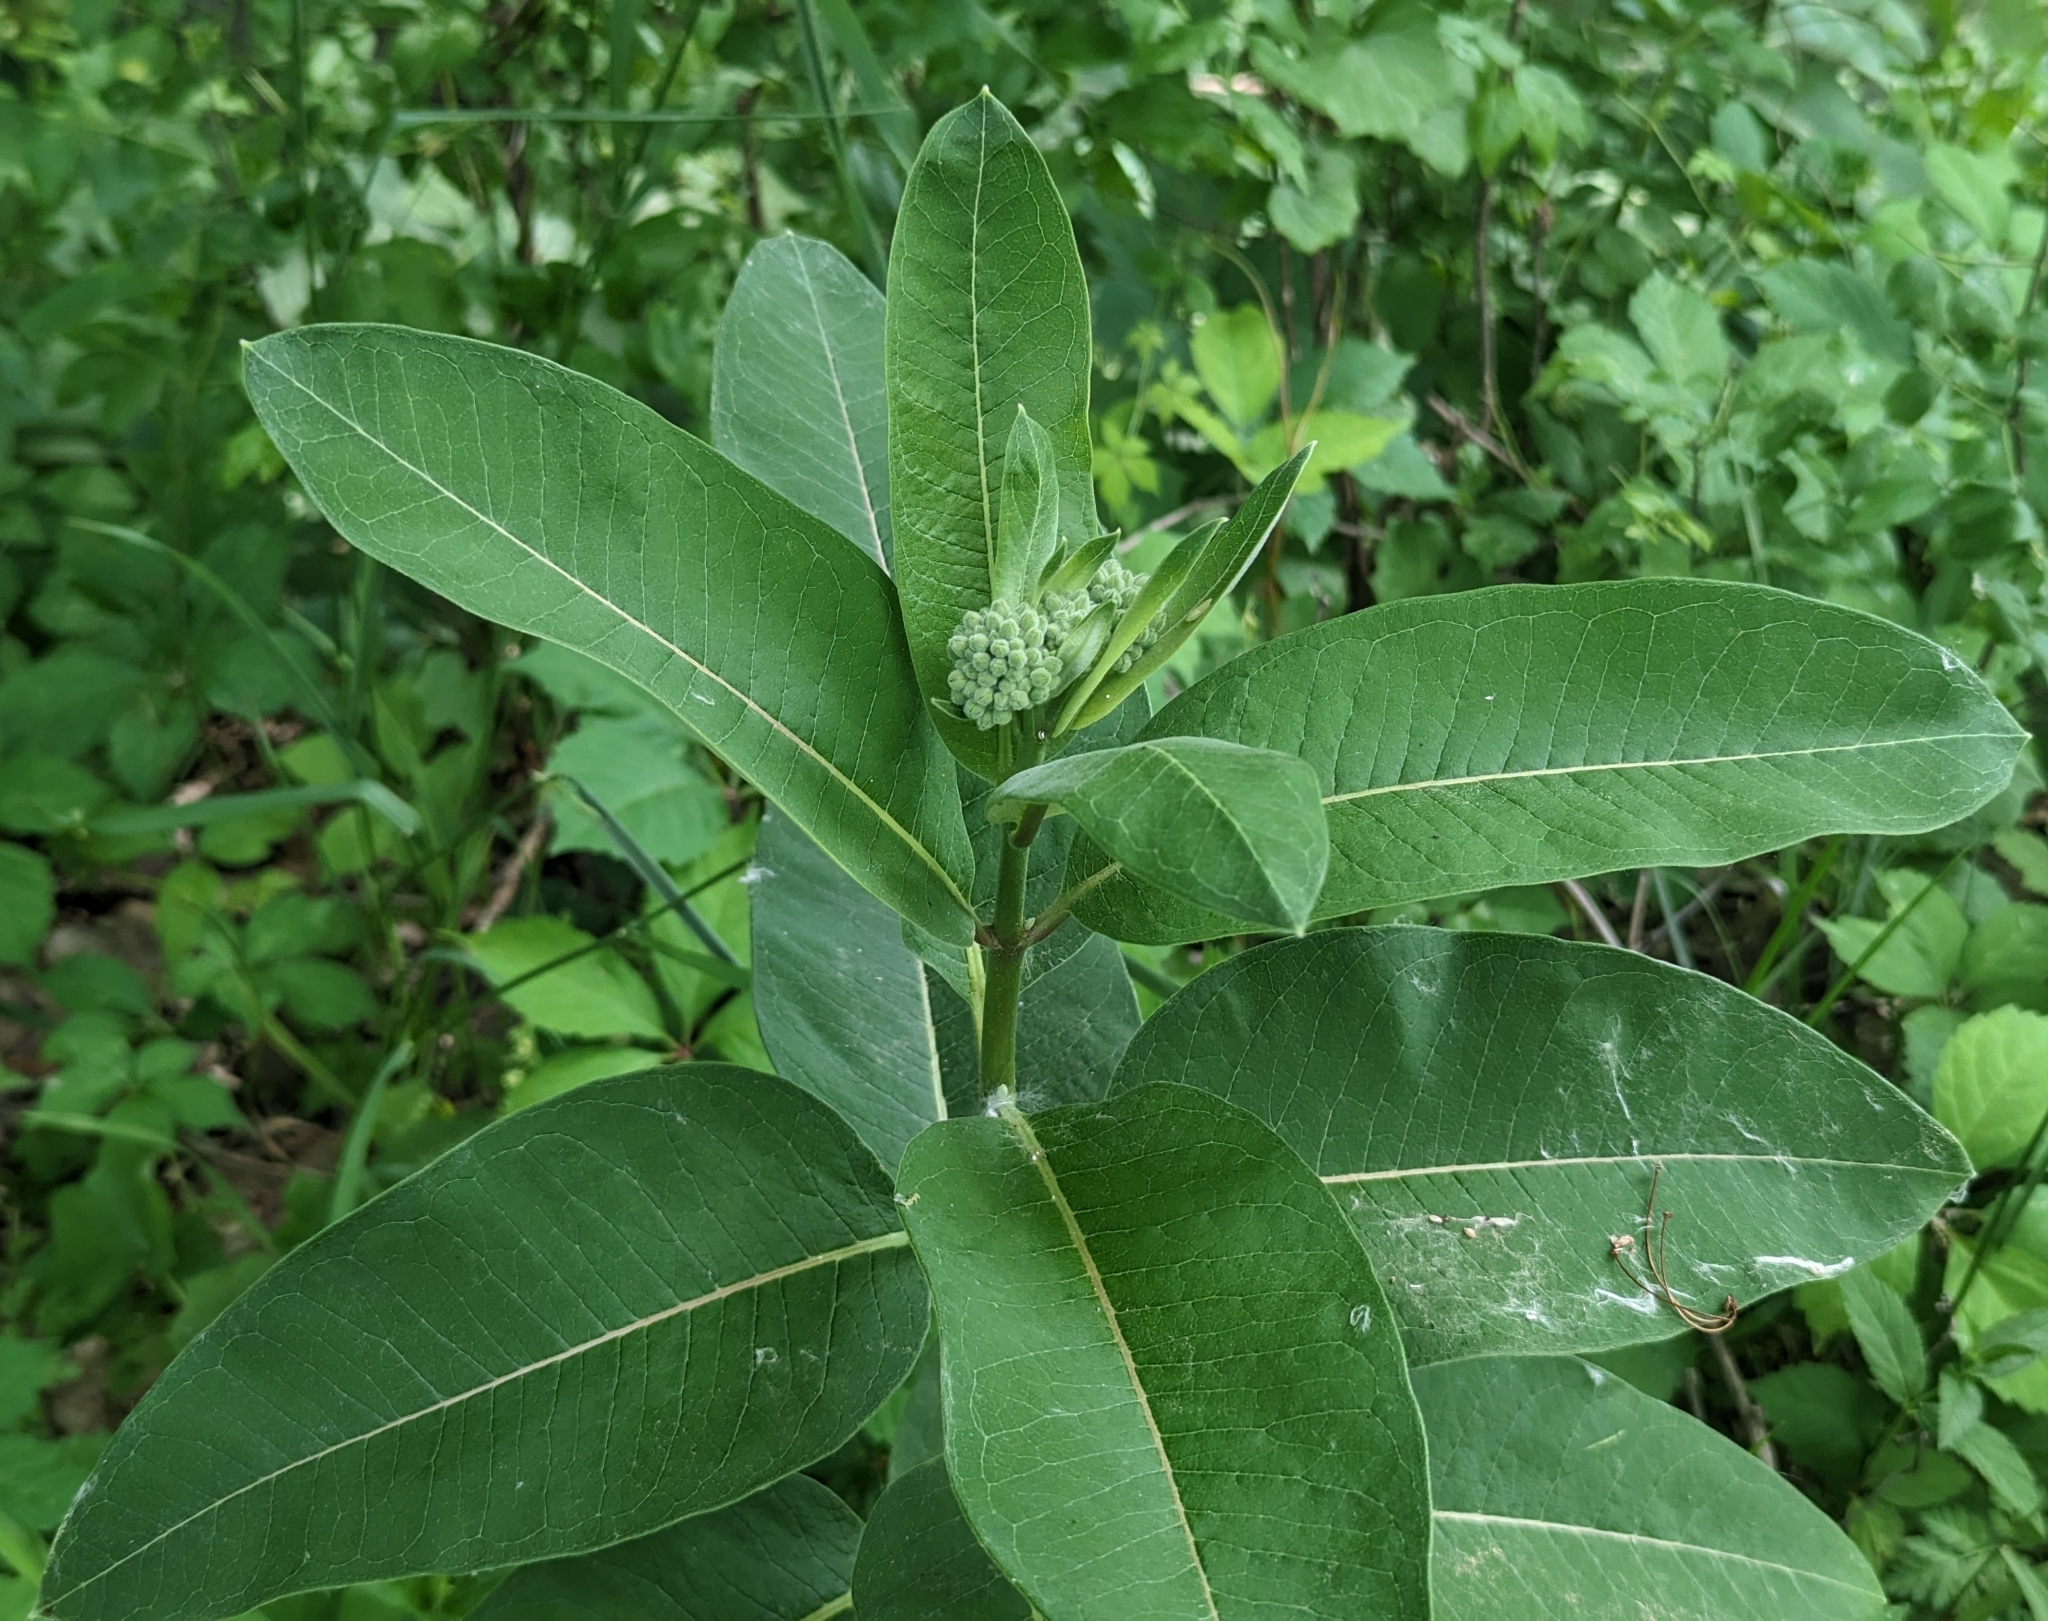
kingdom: Plantae
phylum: Tracheophyta
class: Magnoliopsida
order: Gentianales
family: Apocynaceae
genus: Asclepias
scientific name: Asclepias syriaca
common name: Common milkweed
